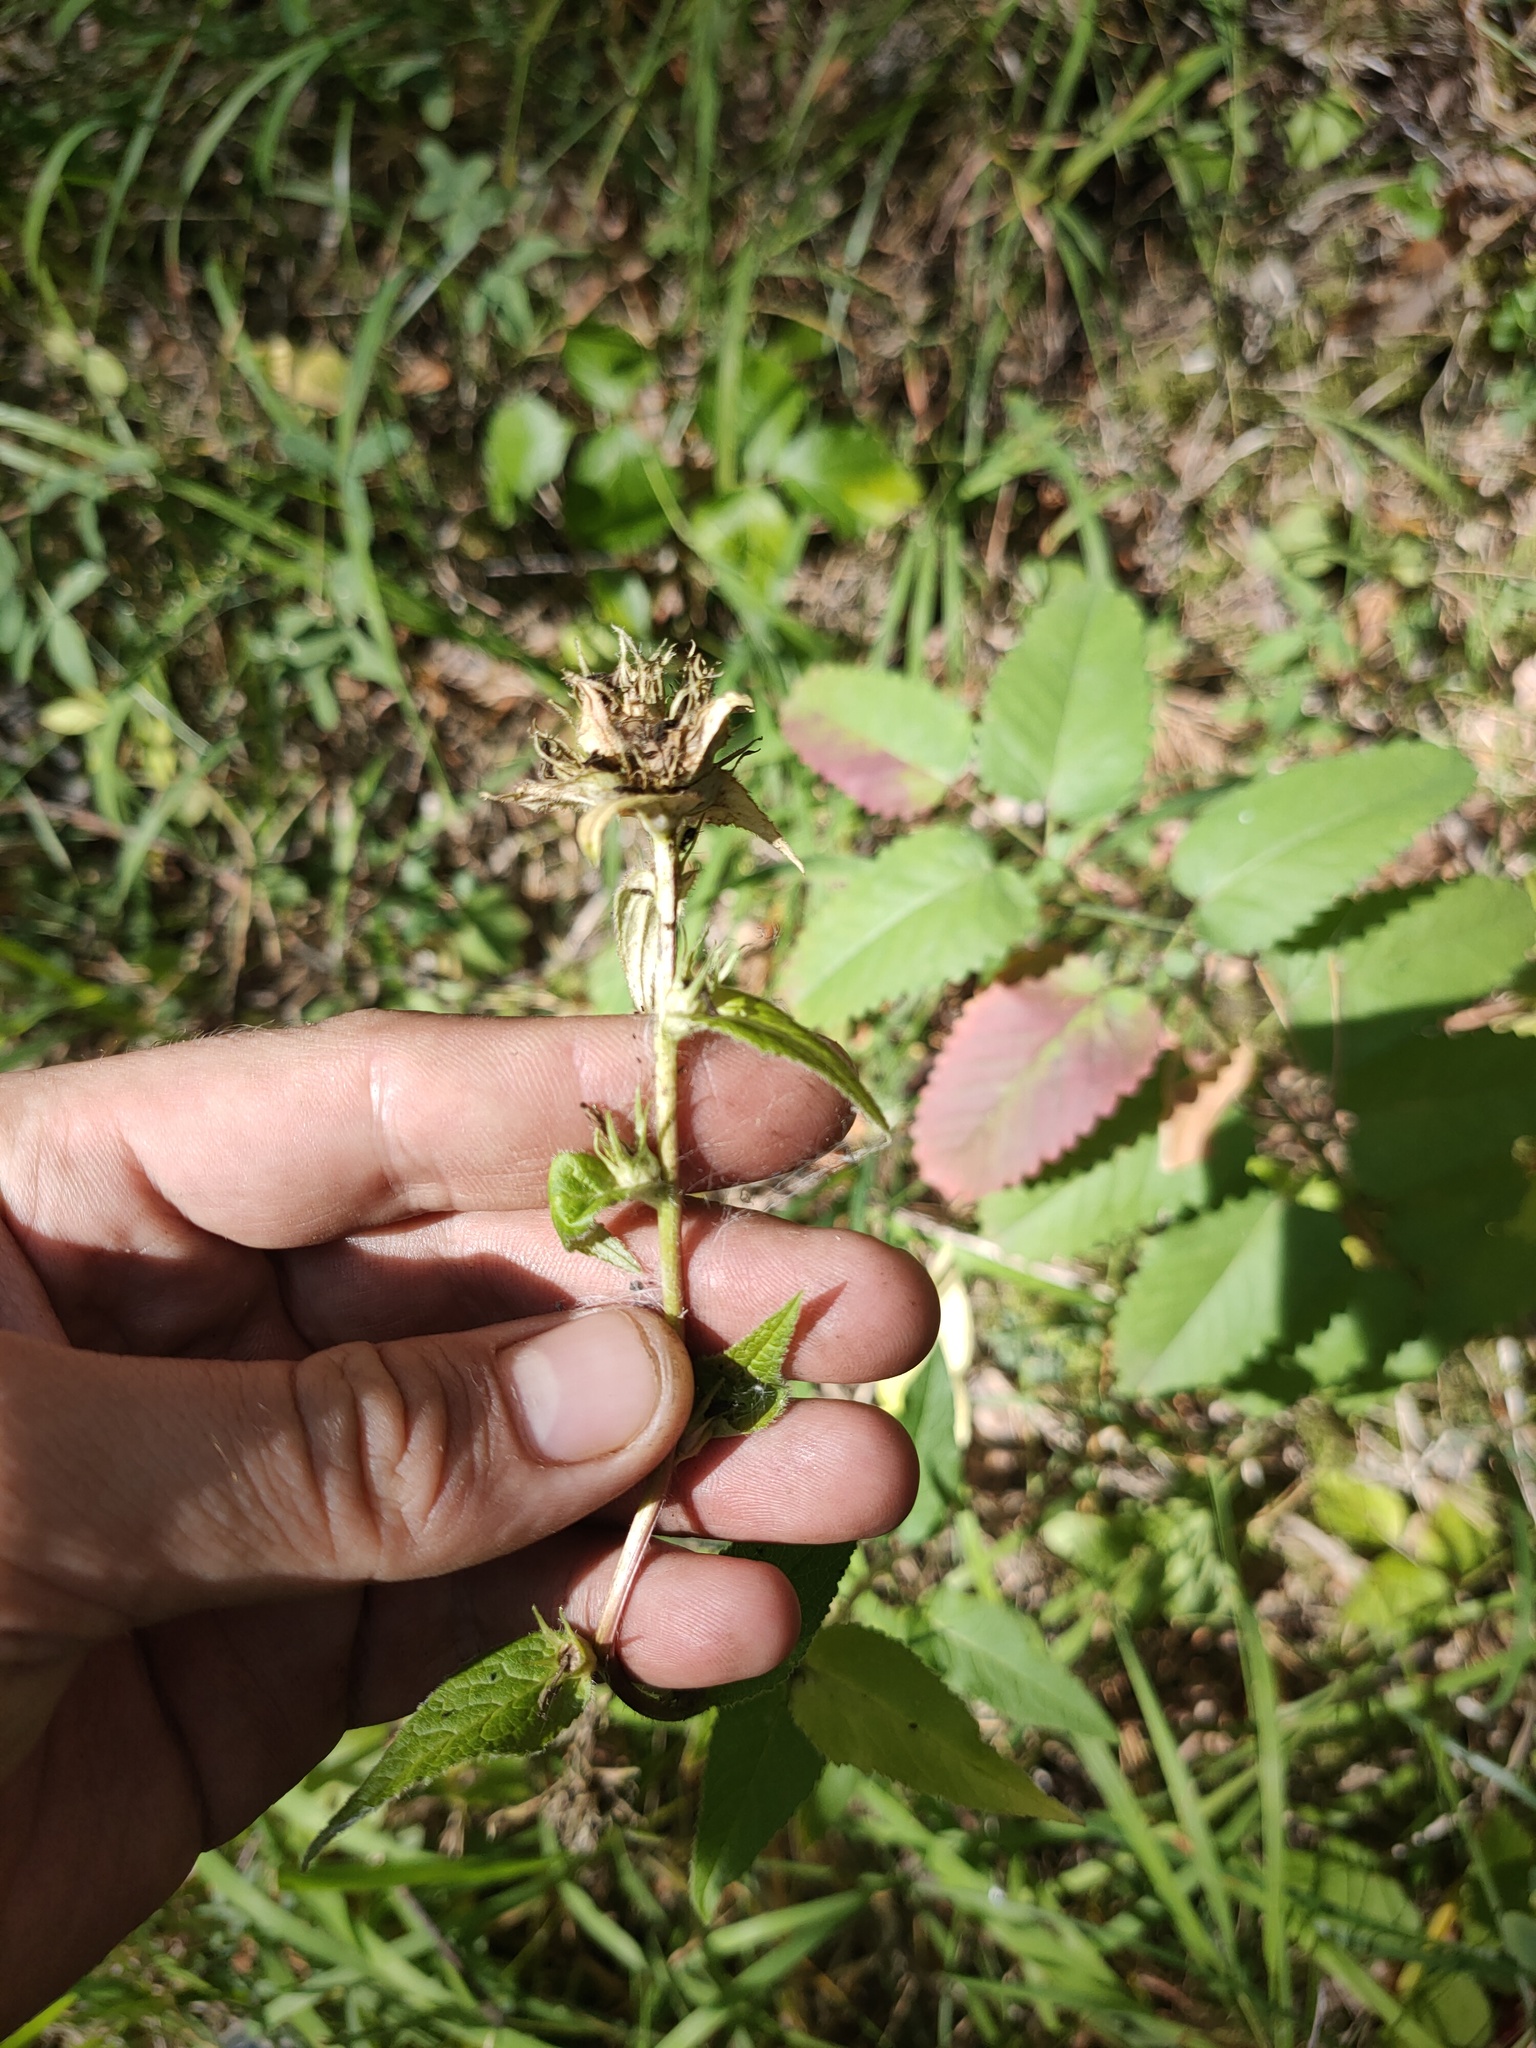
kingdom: Plantae
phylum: Tracheophyta
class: Magnoliopsida
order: Asterales
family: Campanulaceae
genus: Campanula
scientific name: Campanula glomerata
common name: Clustered bellflower
